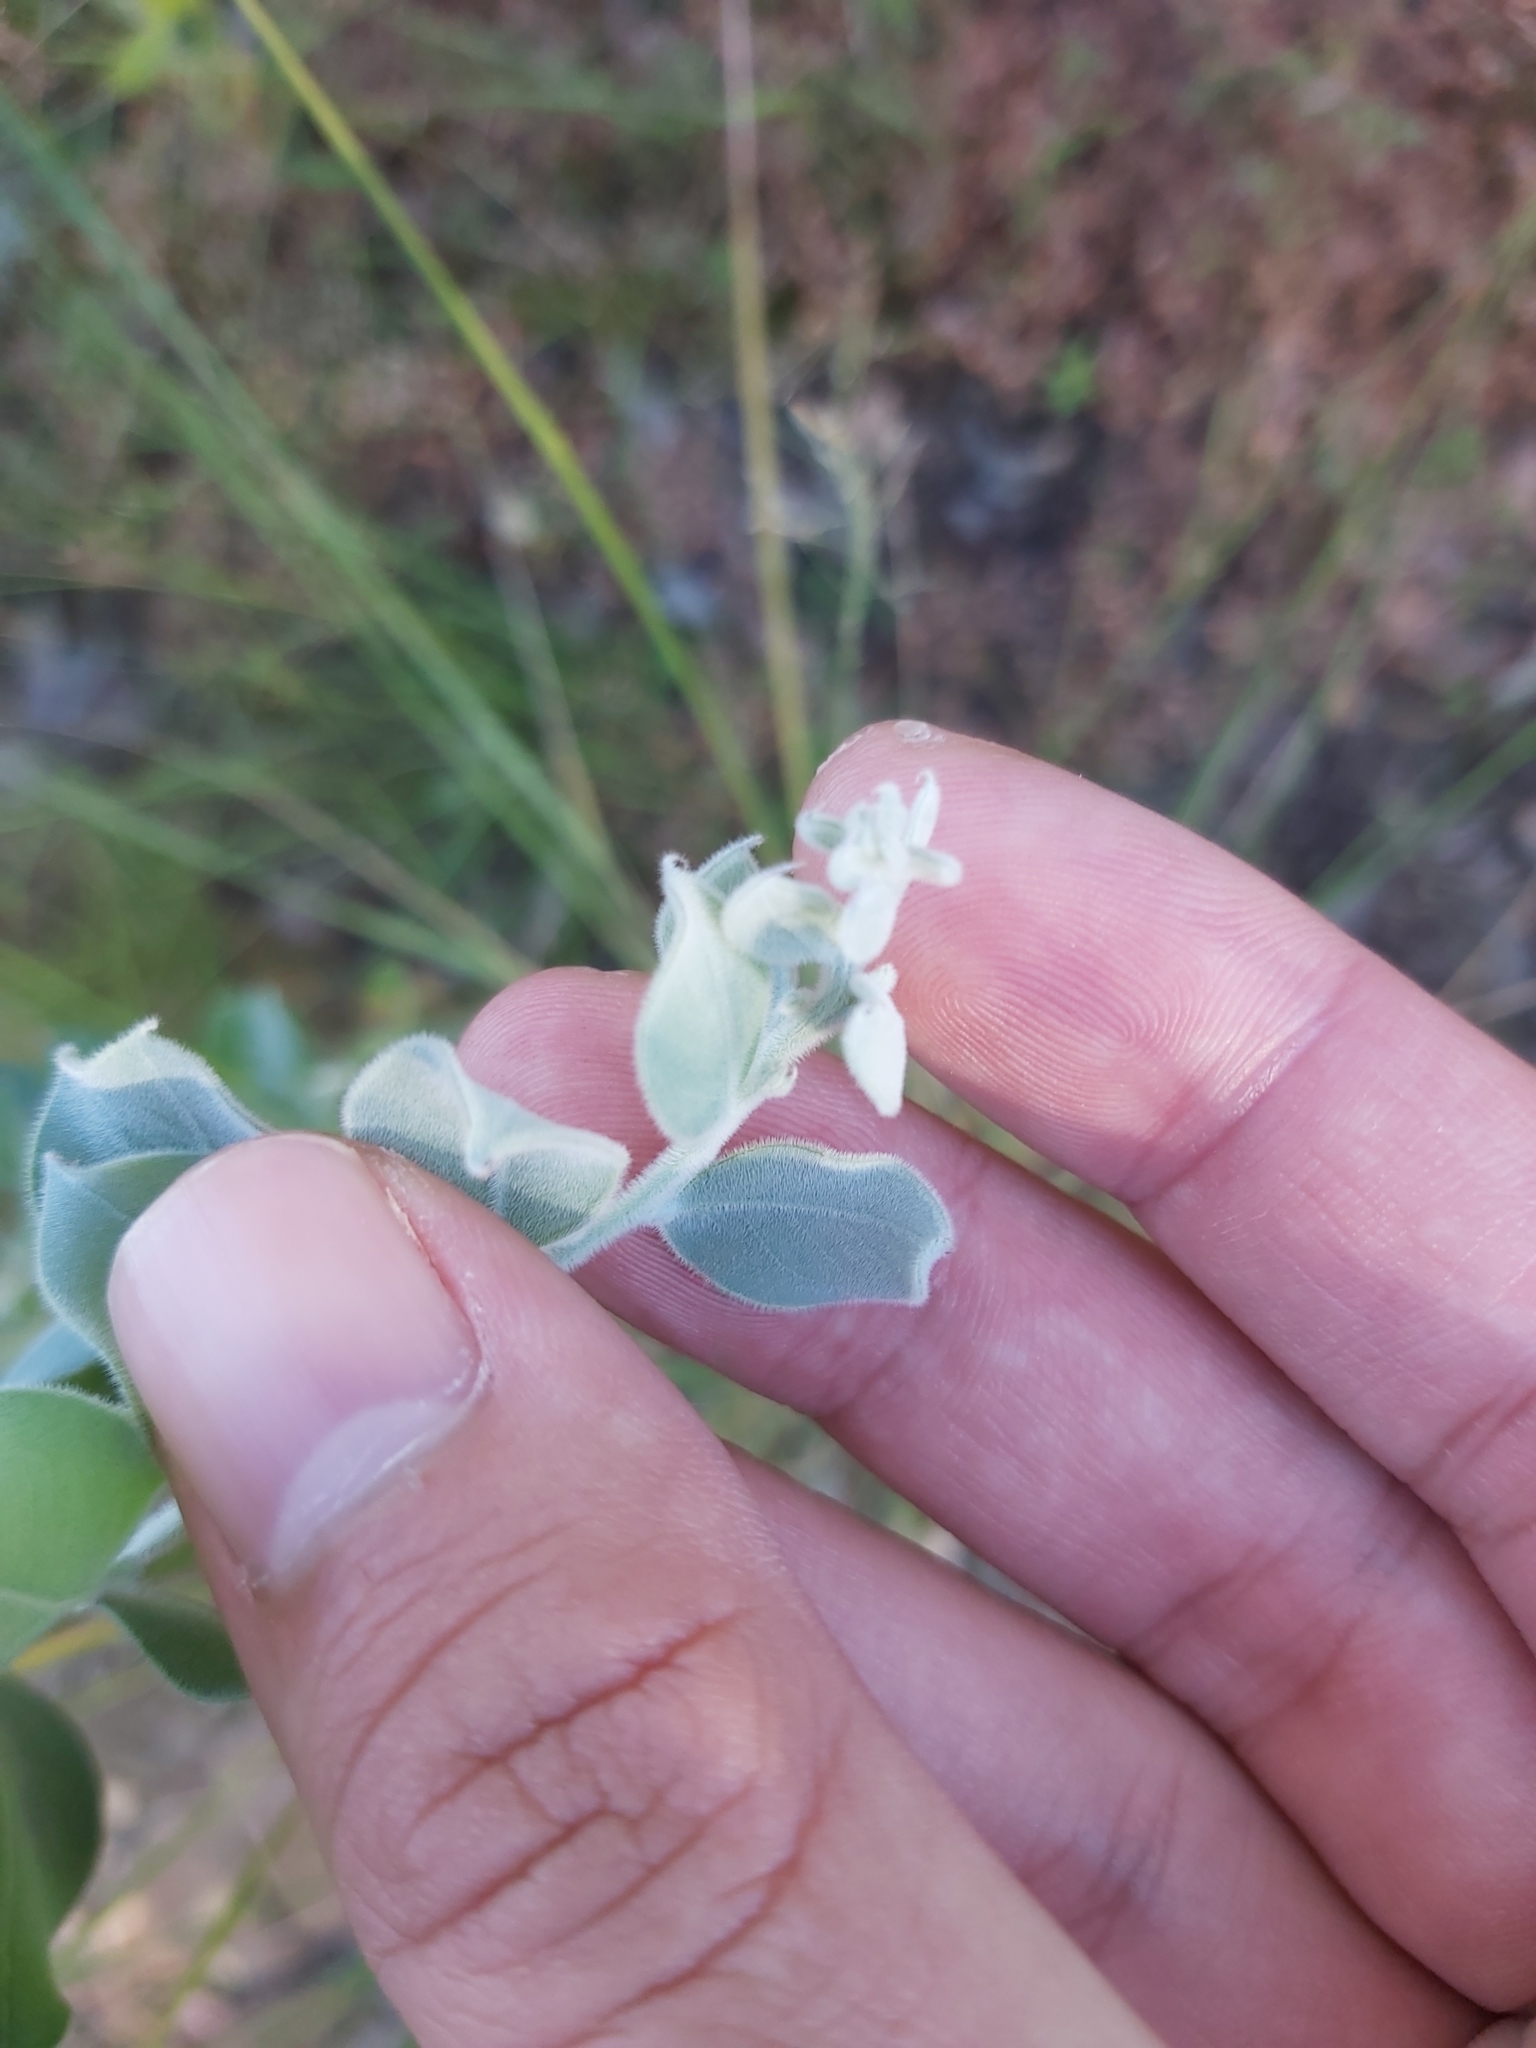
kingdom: Plantae
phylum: Tracheophyta
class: Magnoliopsida
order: Fabales
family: Fabaceae
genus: Acacia
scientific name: Acacia podalyriifolia
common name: Pearl wattle
